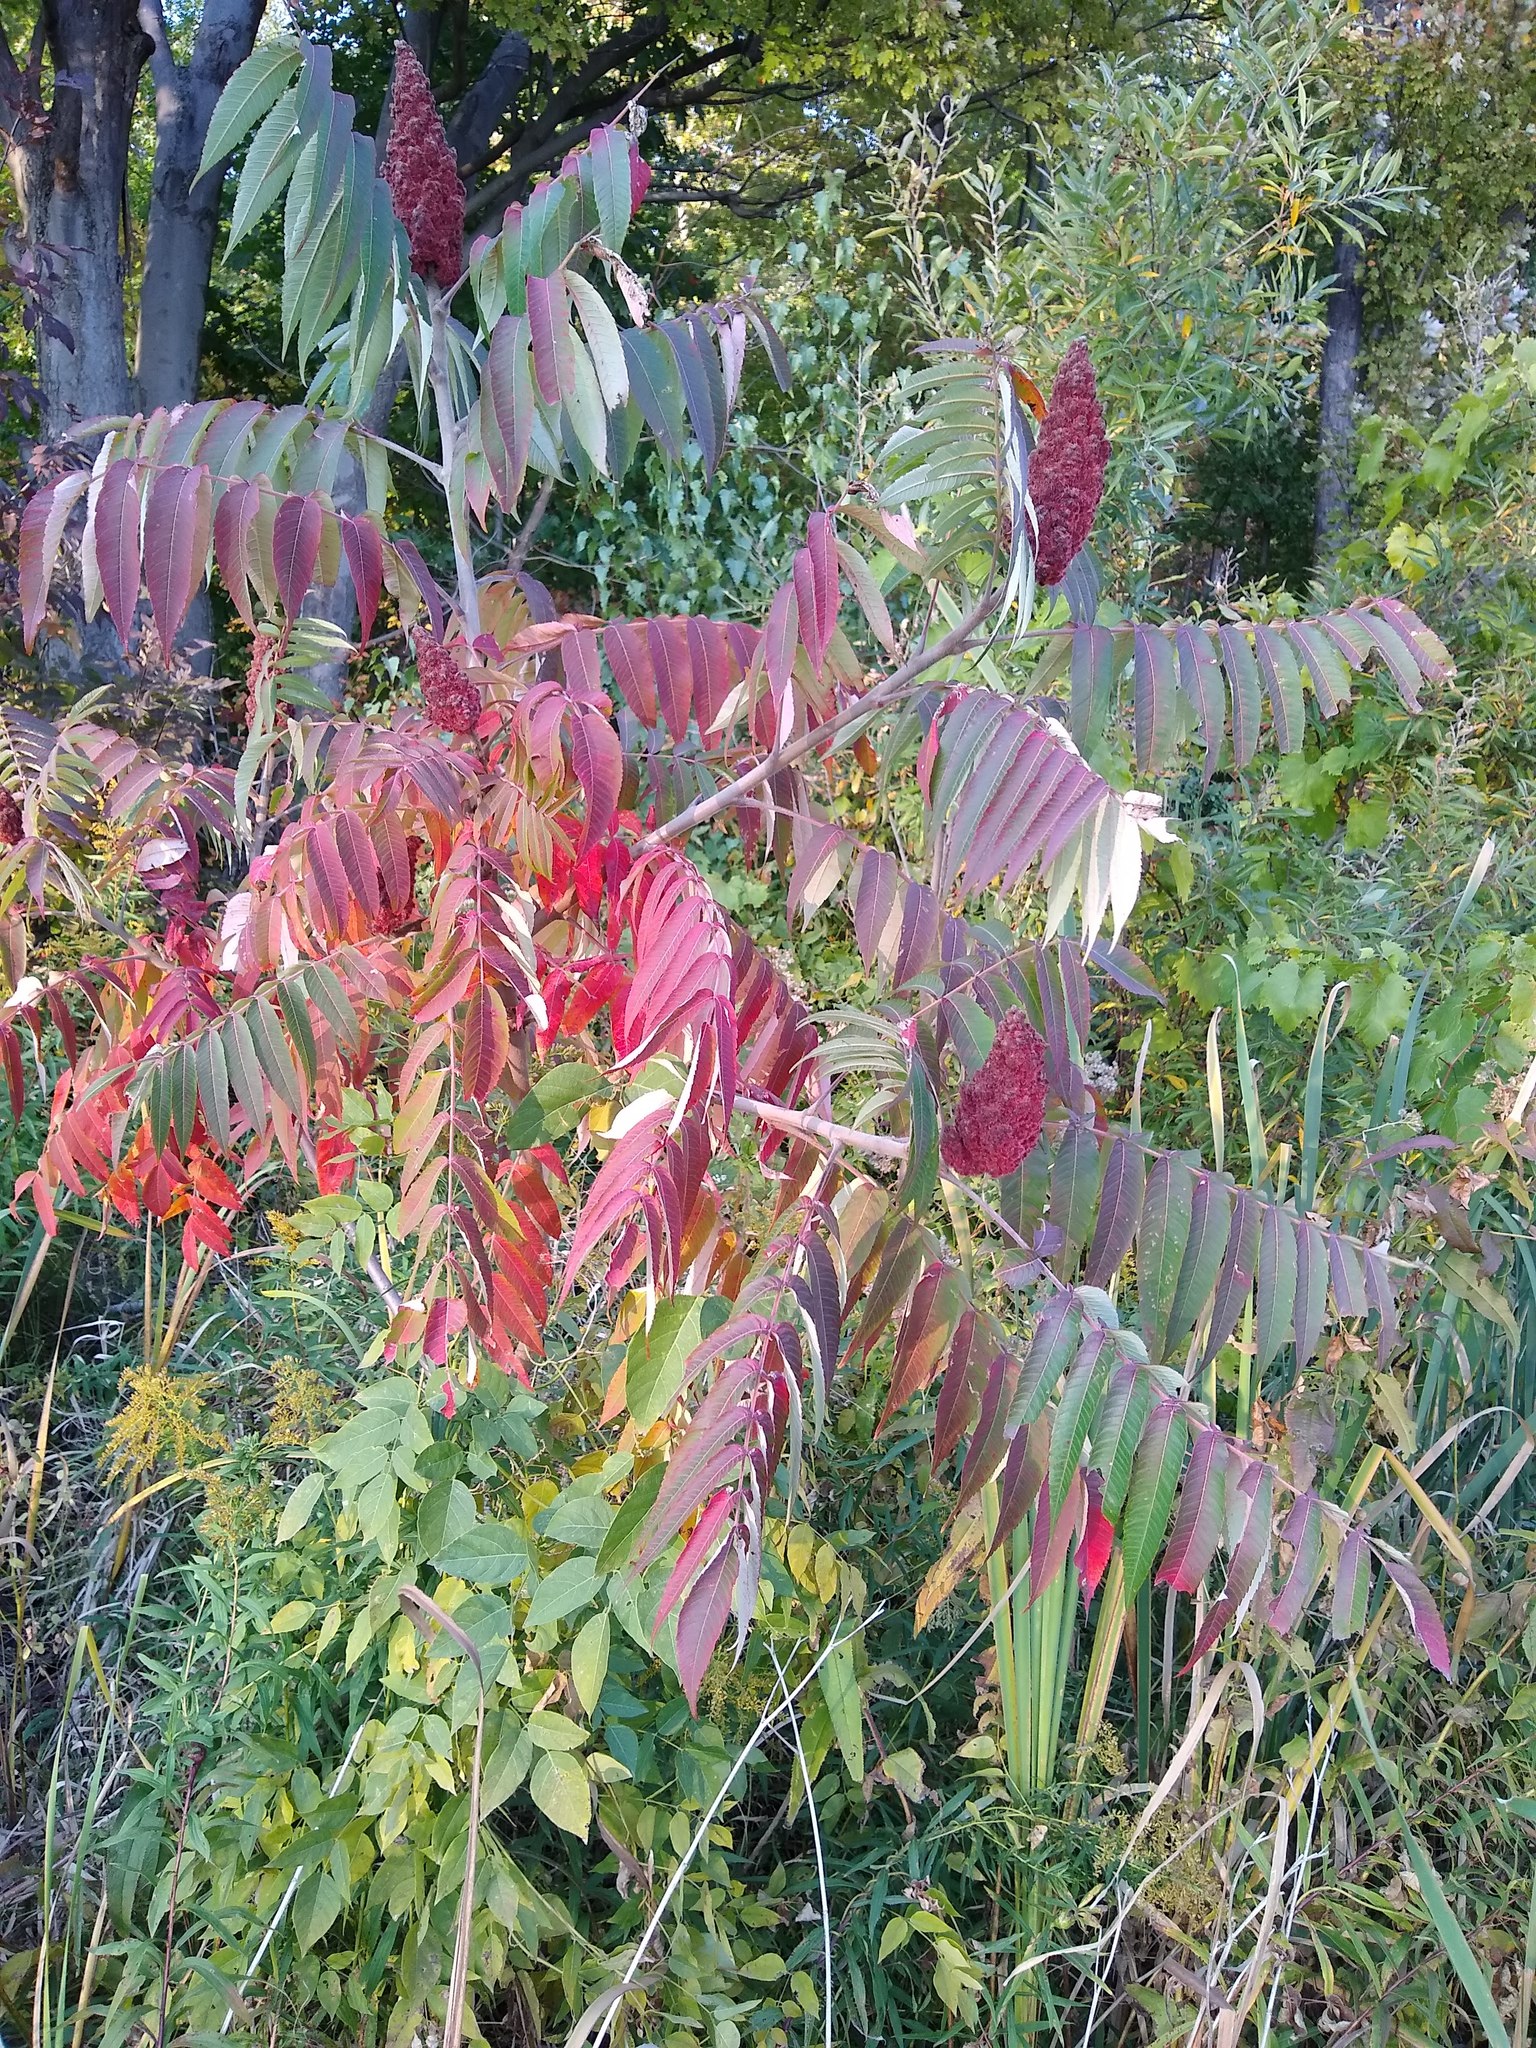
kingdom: Plantae
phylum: Tracheophyta
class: Magnoliopsida
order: Sapindales
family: Anacardiaceae
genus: Rhus
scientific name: Rhus typhina
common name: Staghorn sumac
